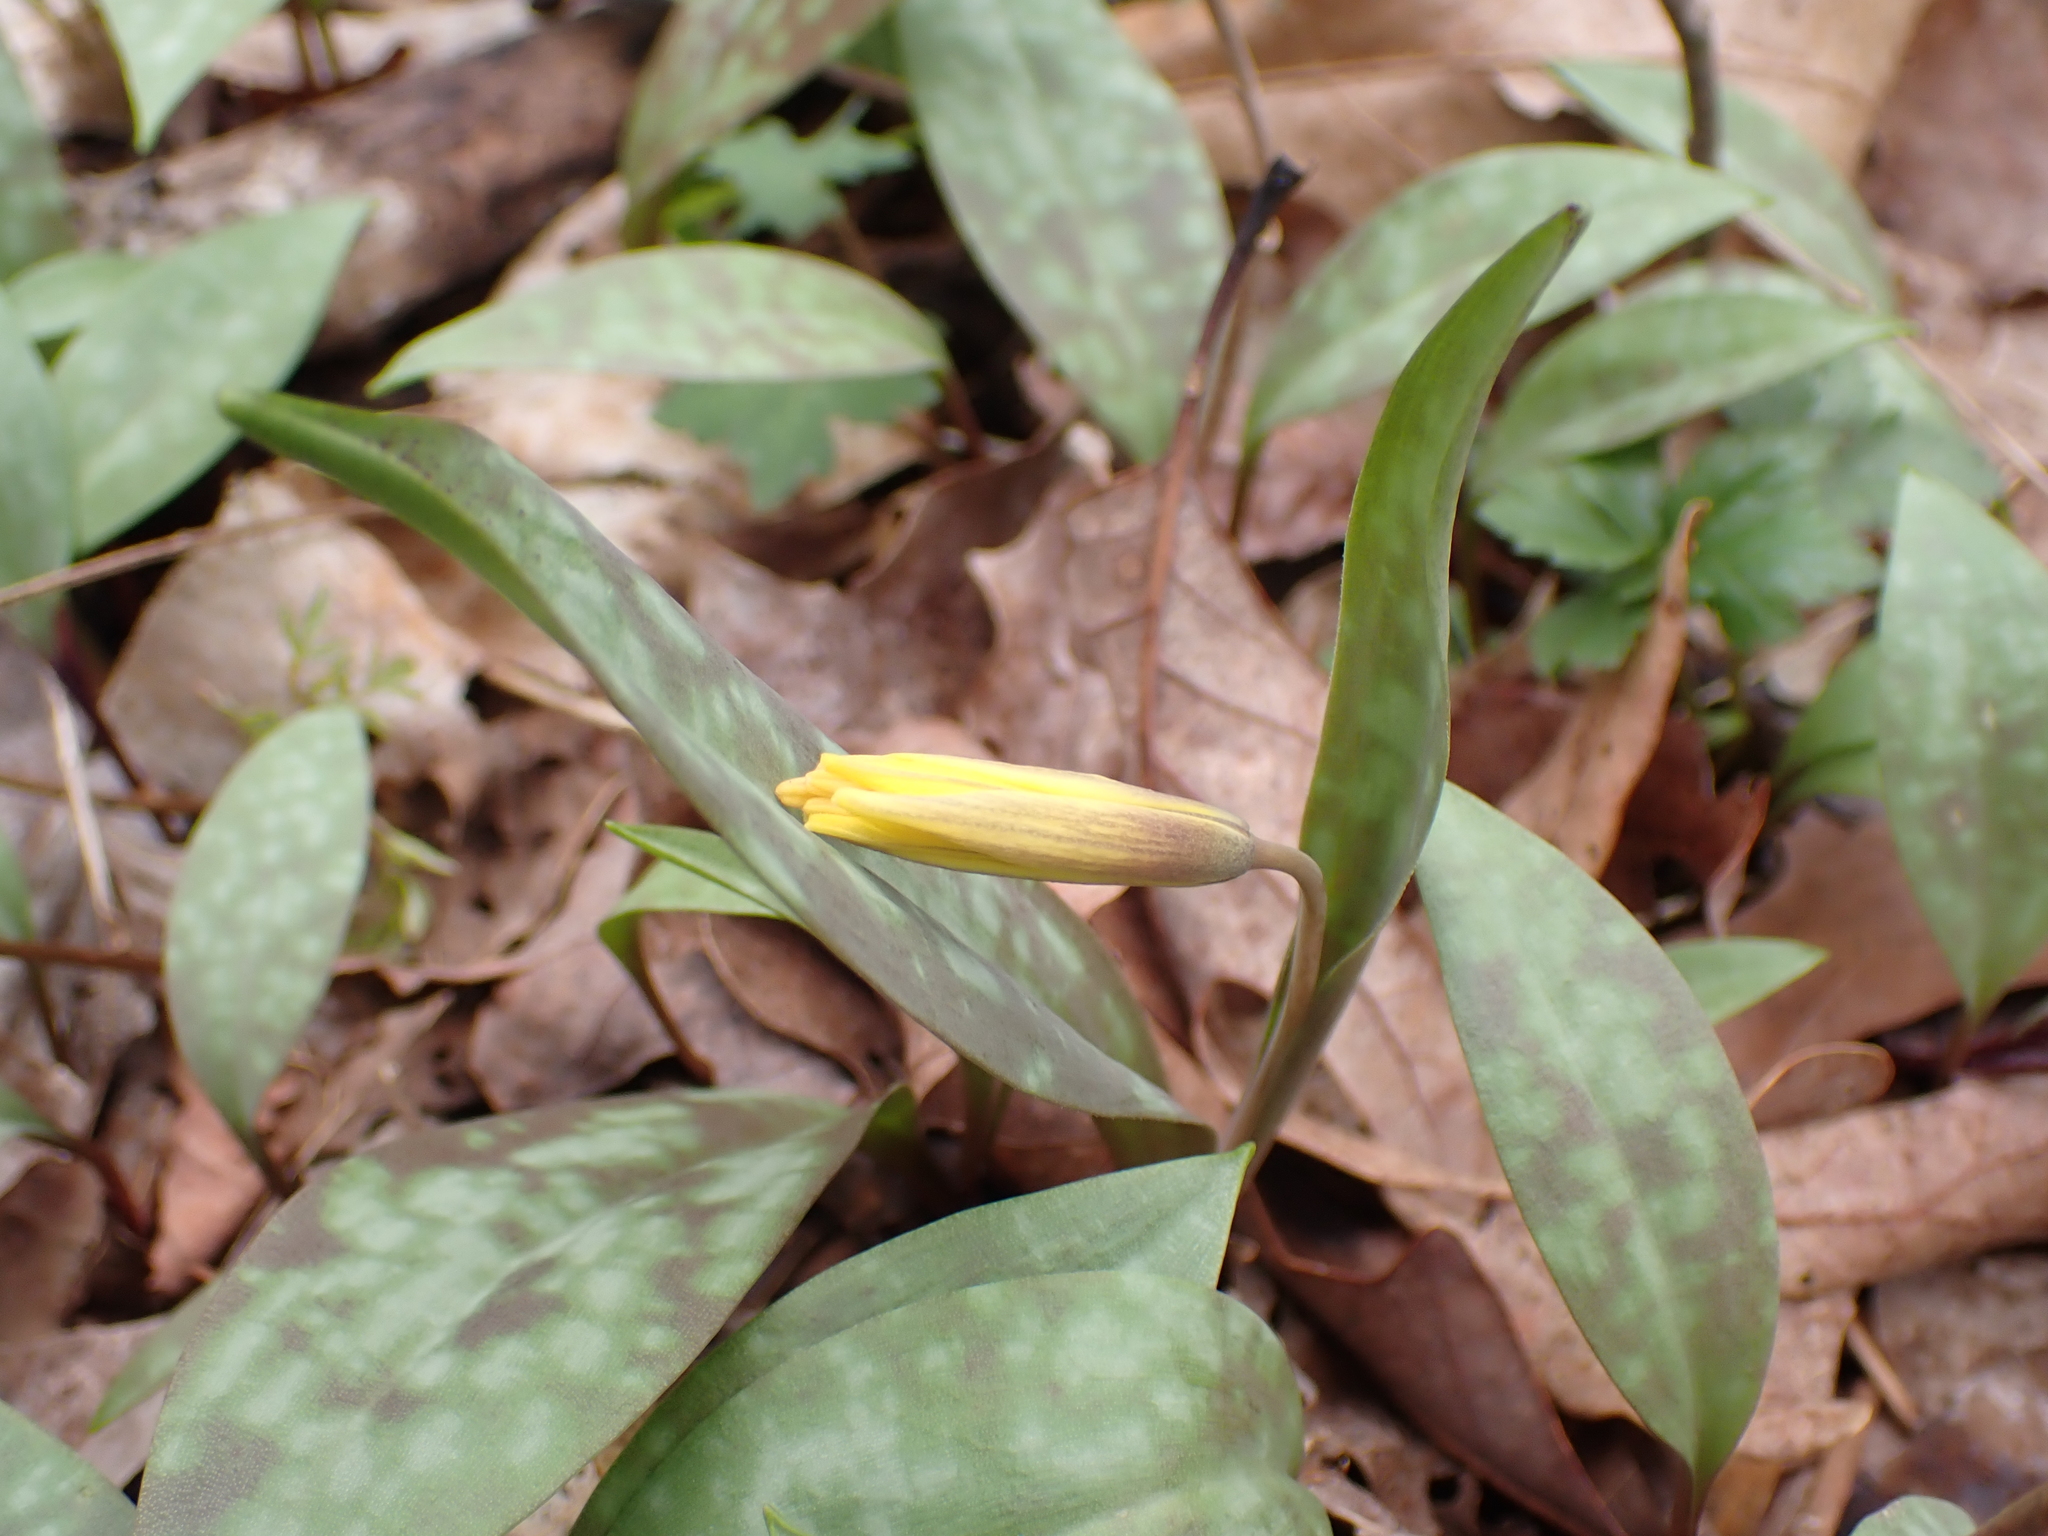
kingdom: Plantae
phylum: Tracheophyta
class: Liliopsida
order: Liliales
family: Liliaceae
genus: Erythronium
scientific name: Erythronium americanum
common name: Yellow adder's-tongue
